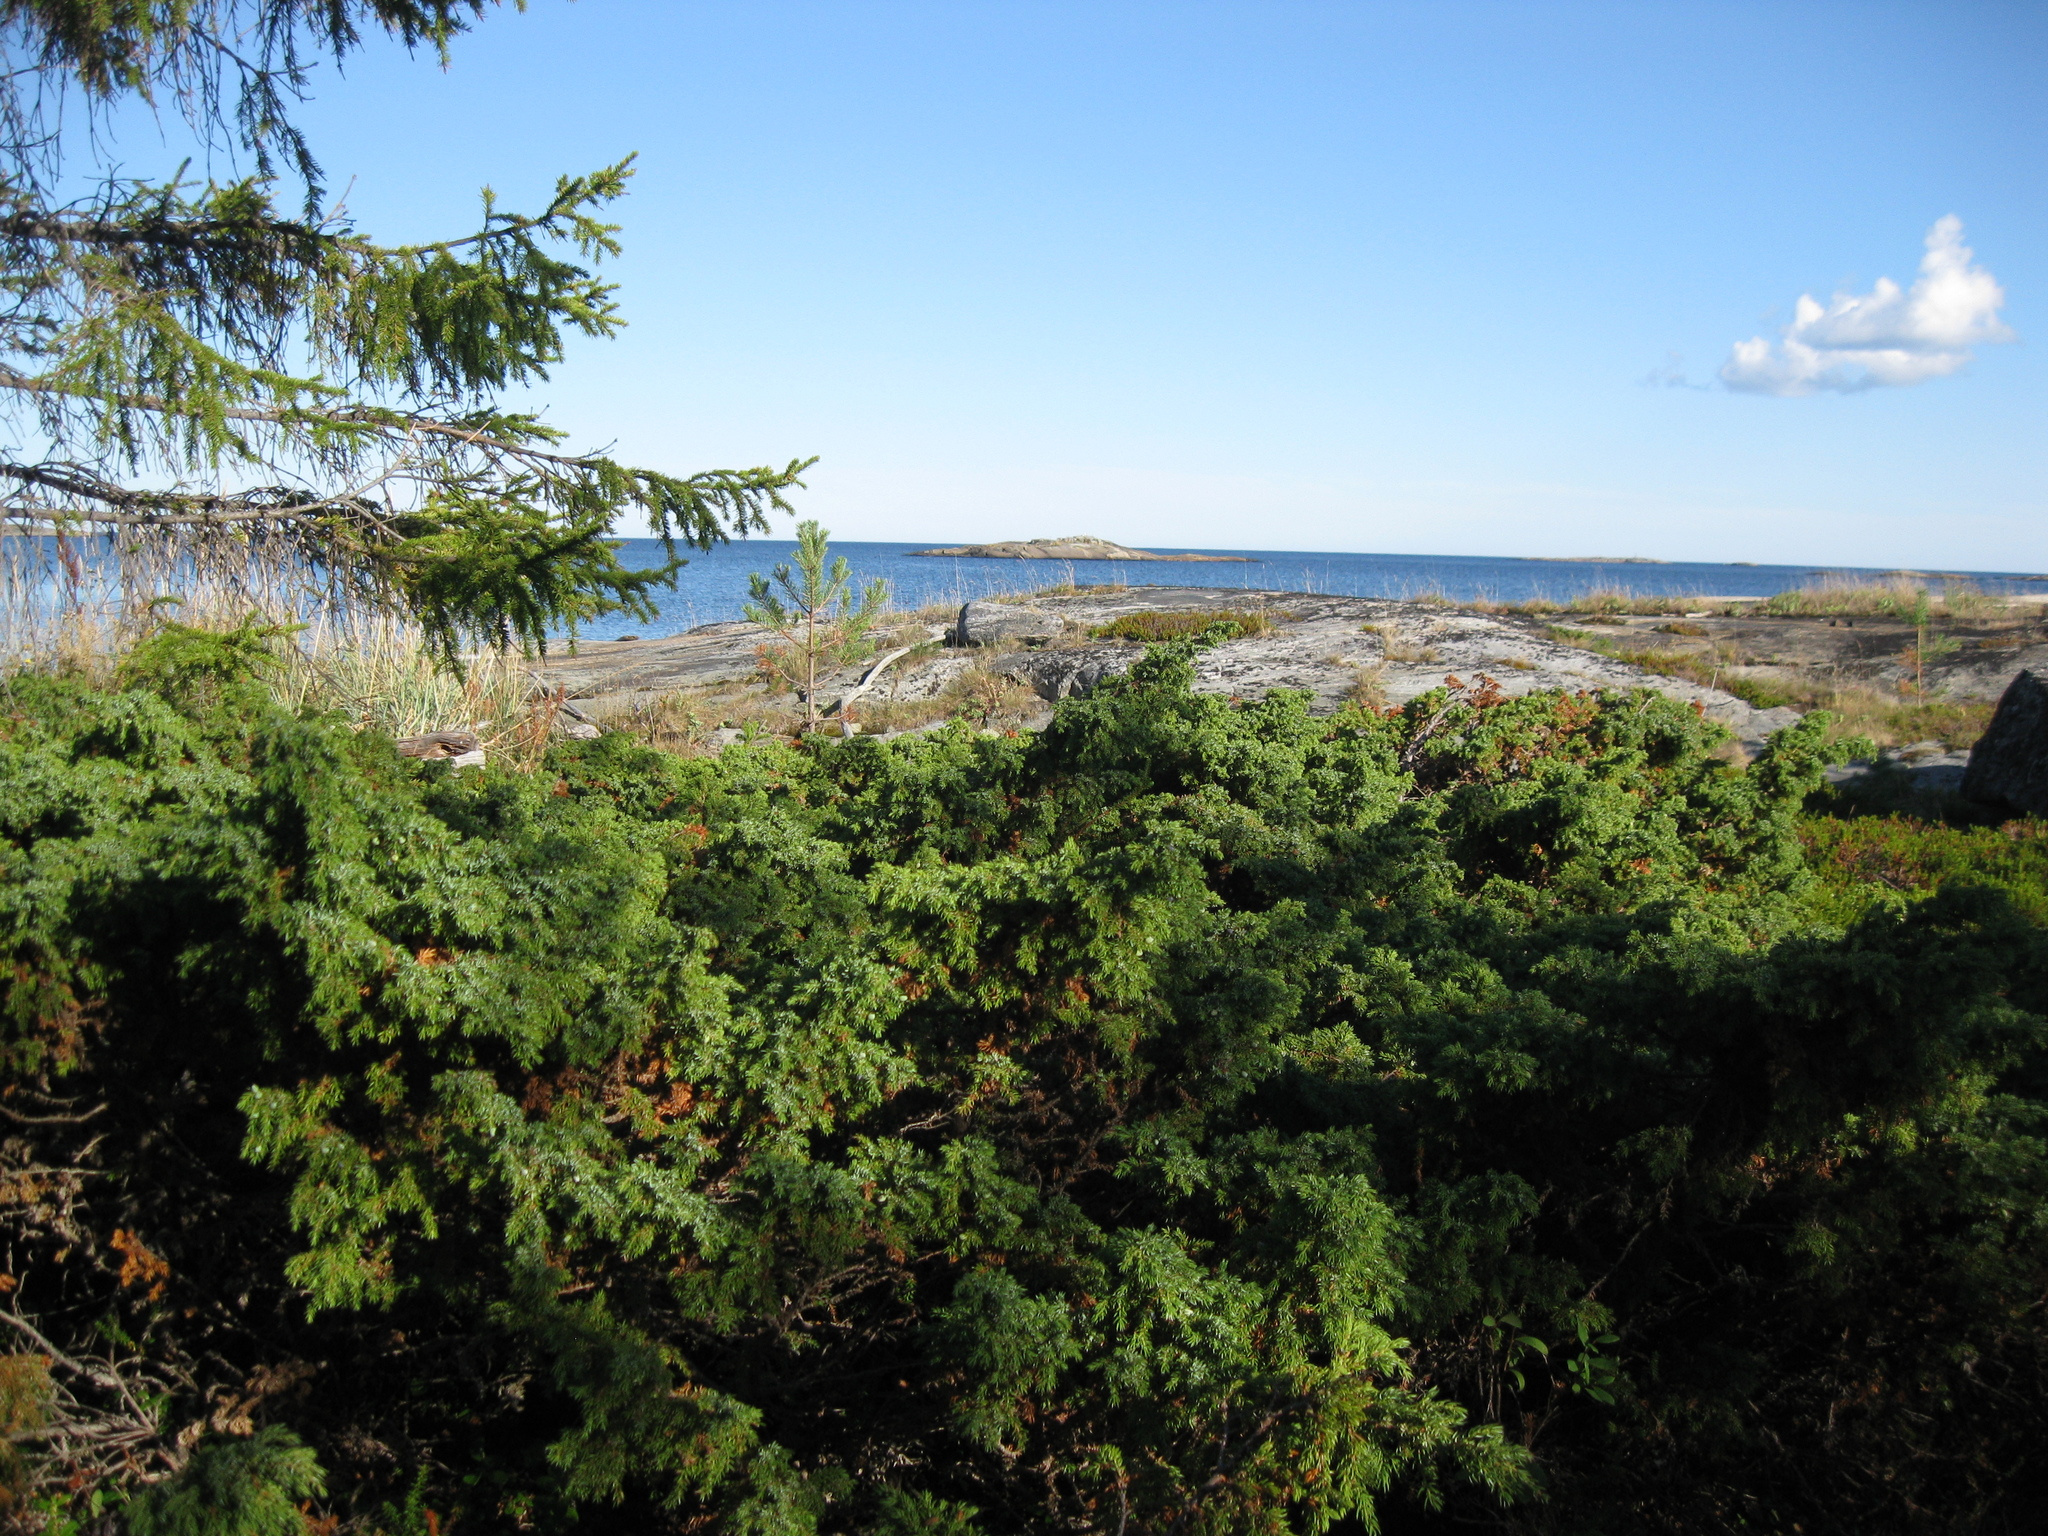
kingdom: Plantae
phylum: Tracheophyta
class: Pinopsida
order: Pinales
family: Cupressaceae
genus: Juniperus
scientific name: Juniperus communis
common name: Common juniper
